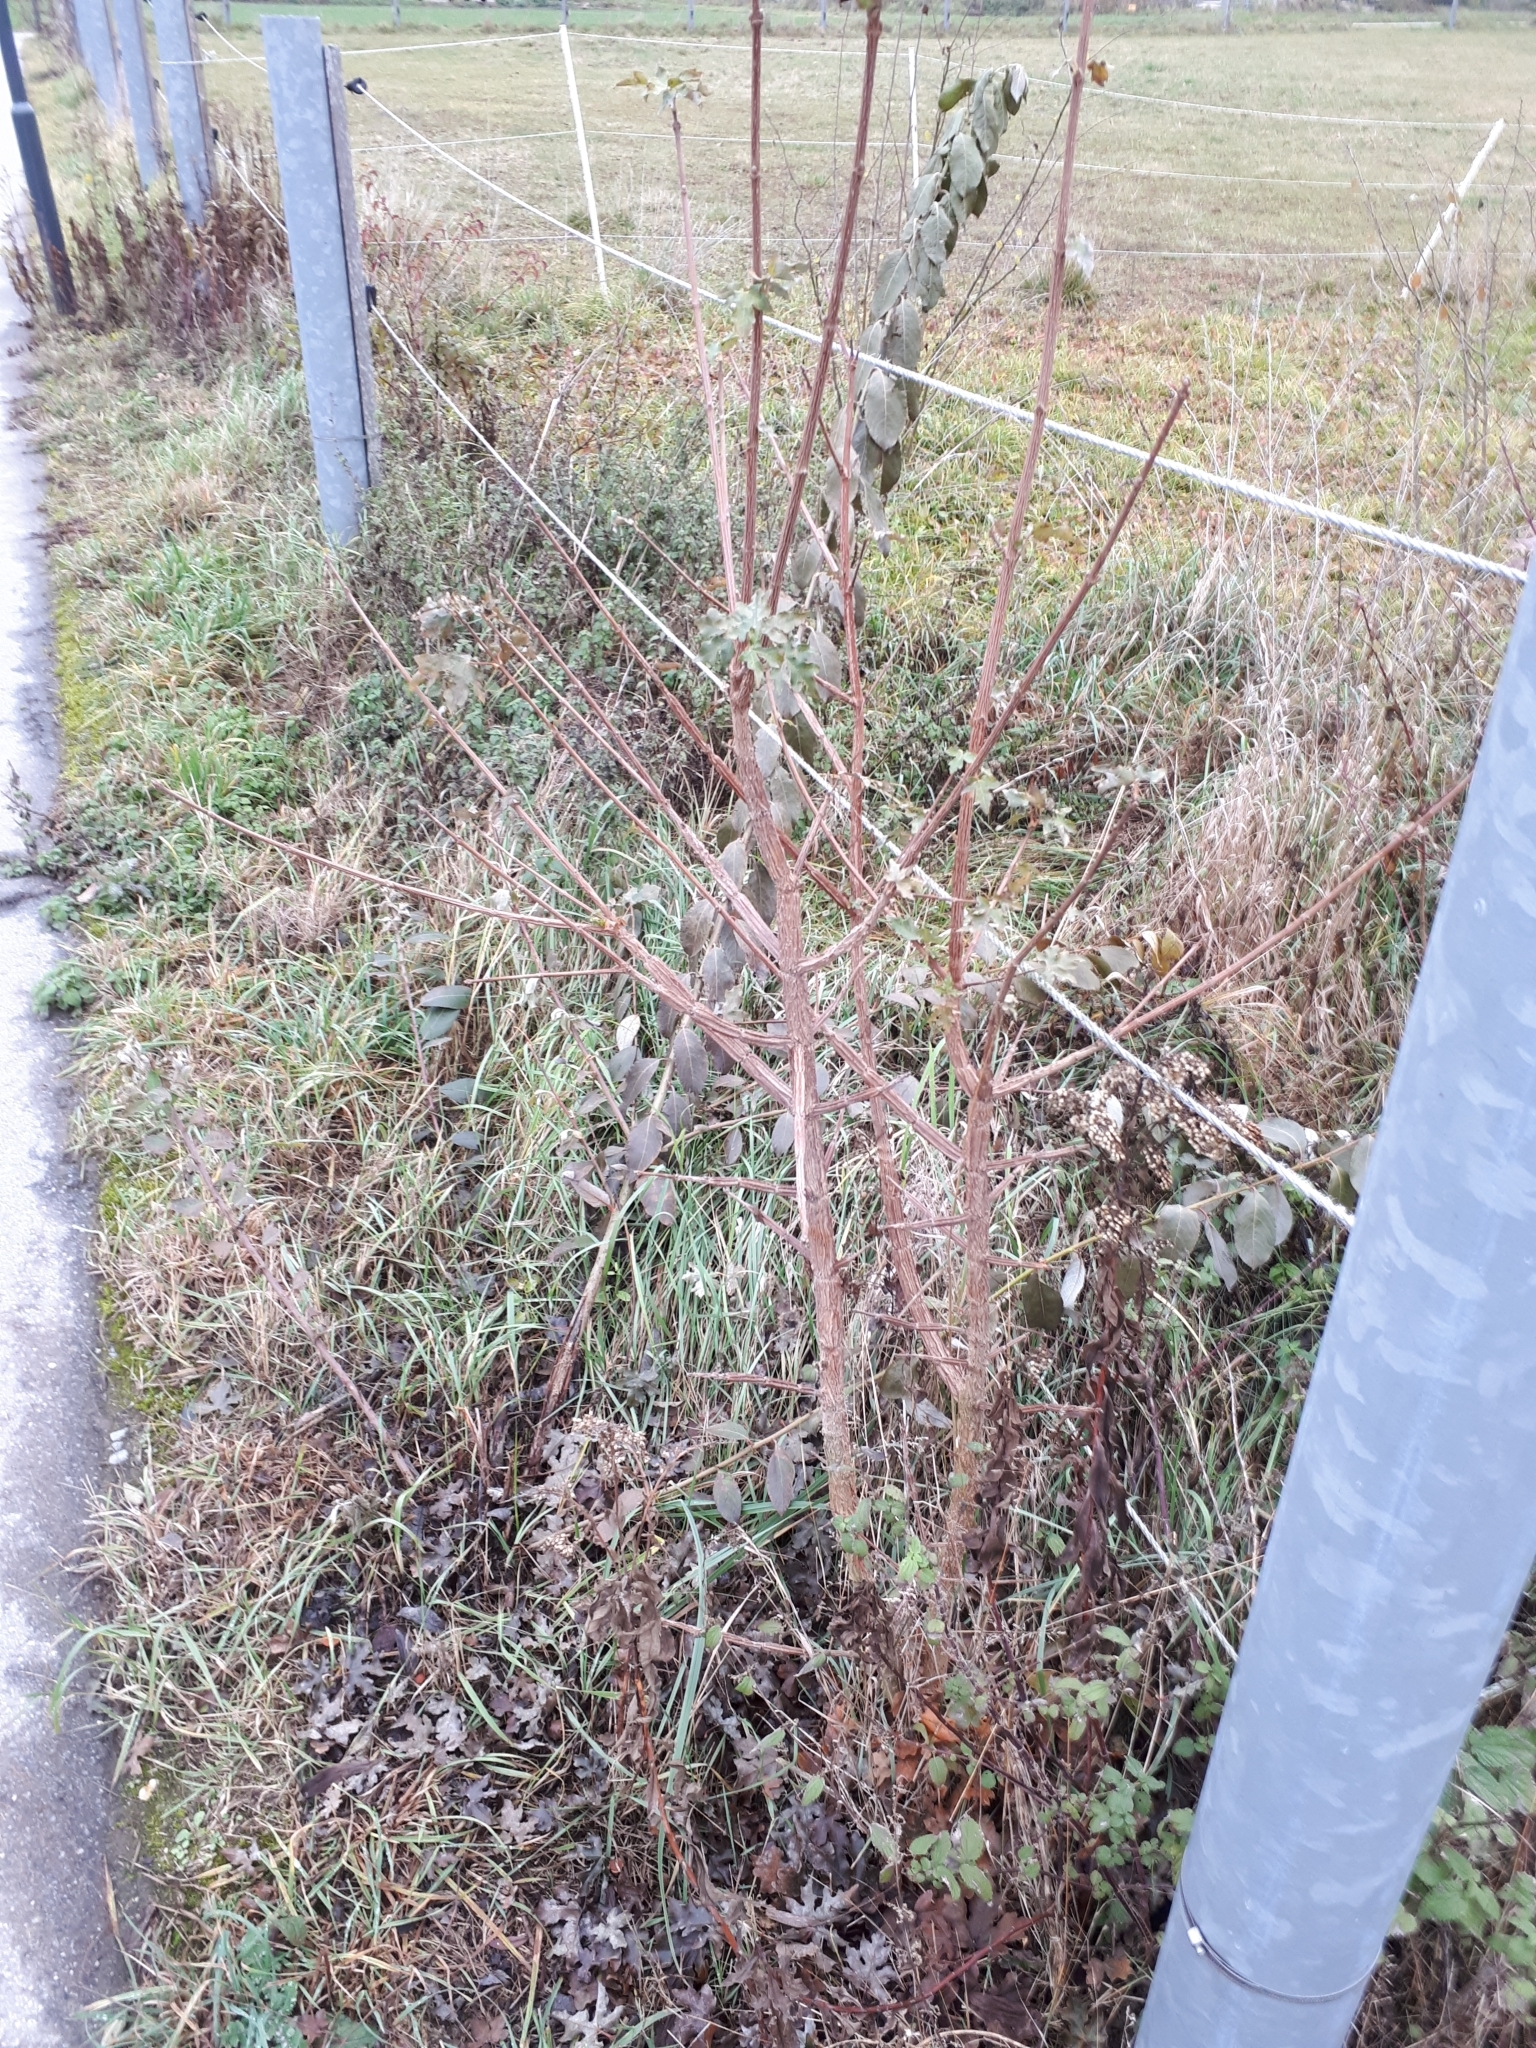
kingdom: Plantae
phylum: Tracheophyta
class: Magnoliopsida
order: Sapindales
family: Sapindaceae
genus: Acer
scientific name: Acer campestre
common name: Field maple
